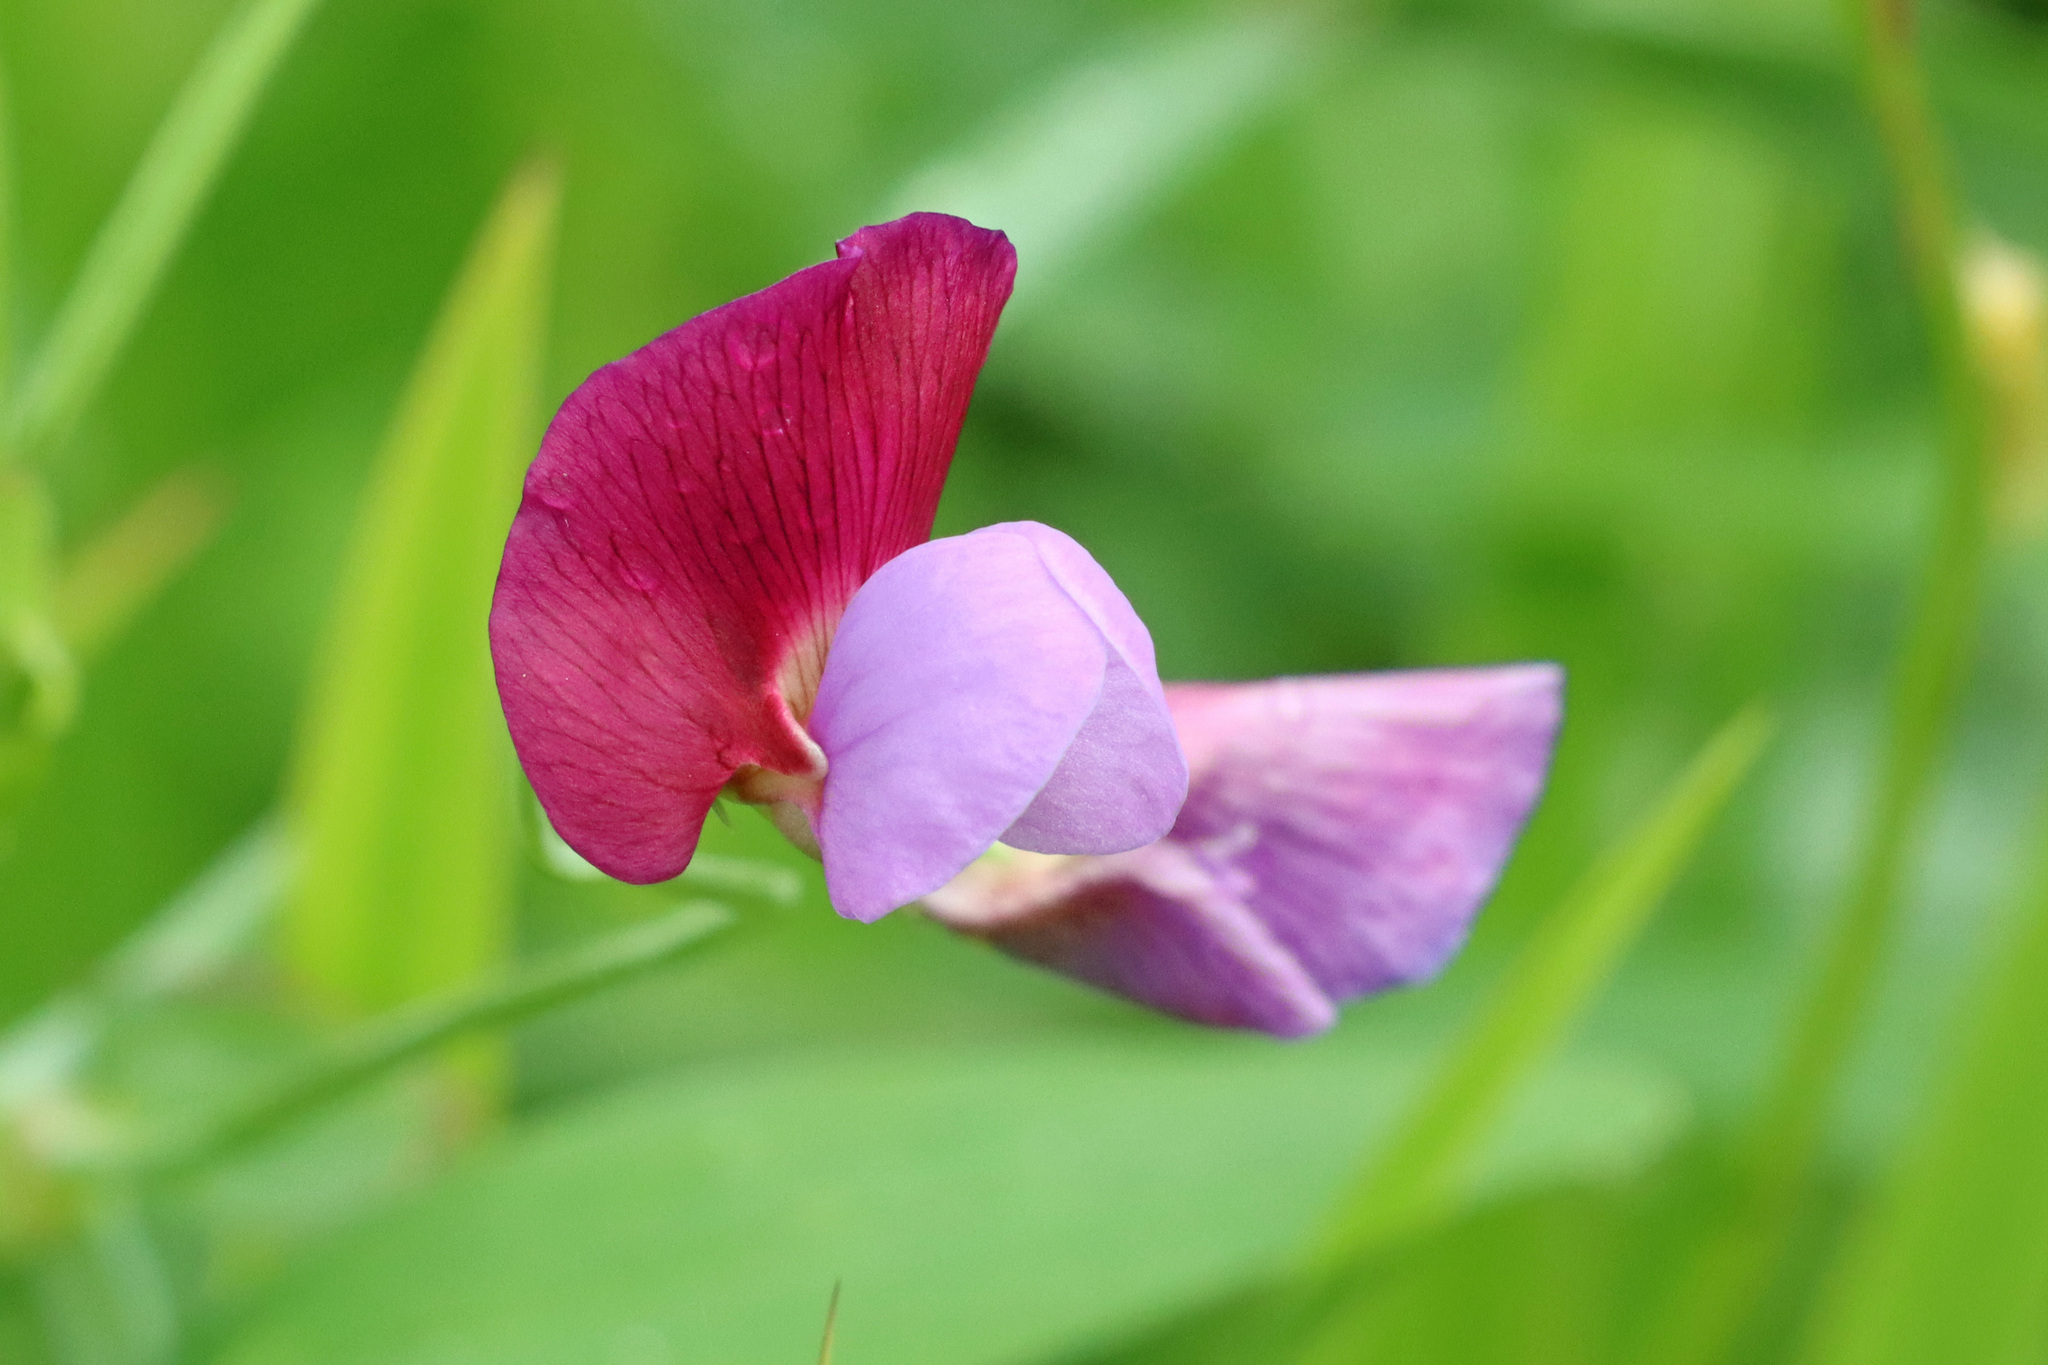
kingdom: Plantae
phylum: Tracheophyta
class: Magnoliopsida
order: Fabales
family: Fabaceae
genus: Lathyrus
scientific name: Lathyrus clymenum
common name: Spanish vetchling
